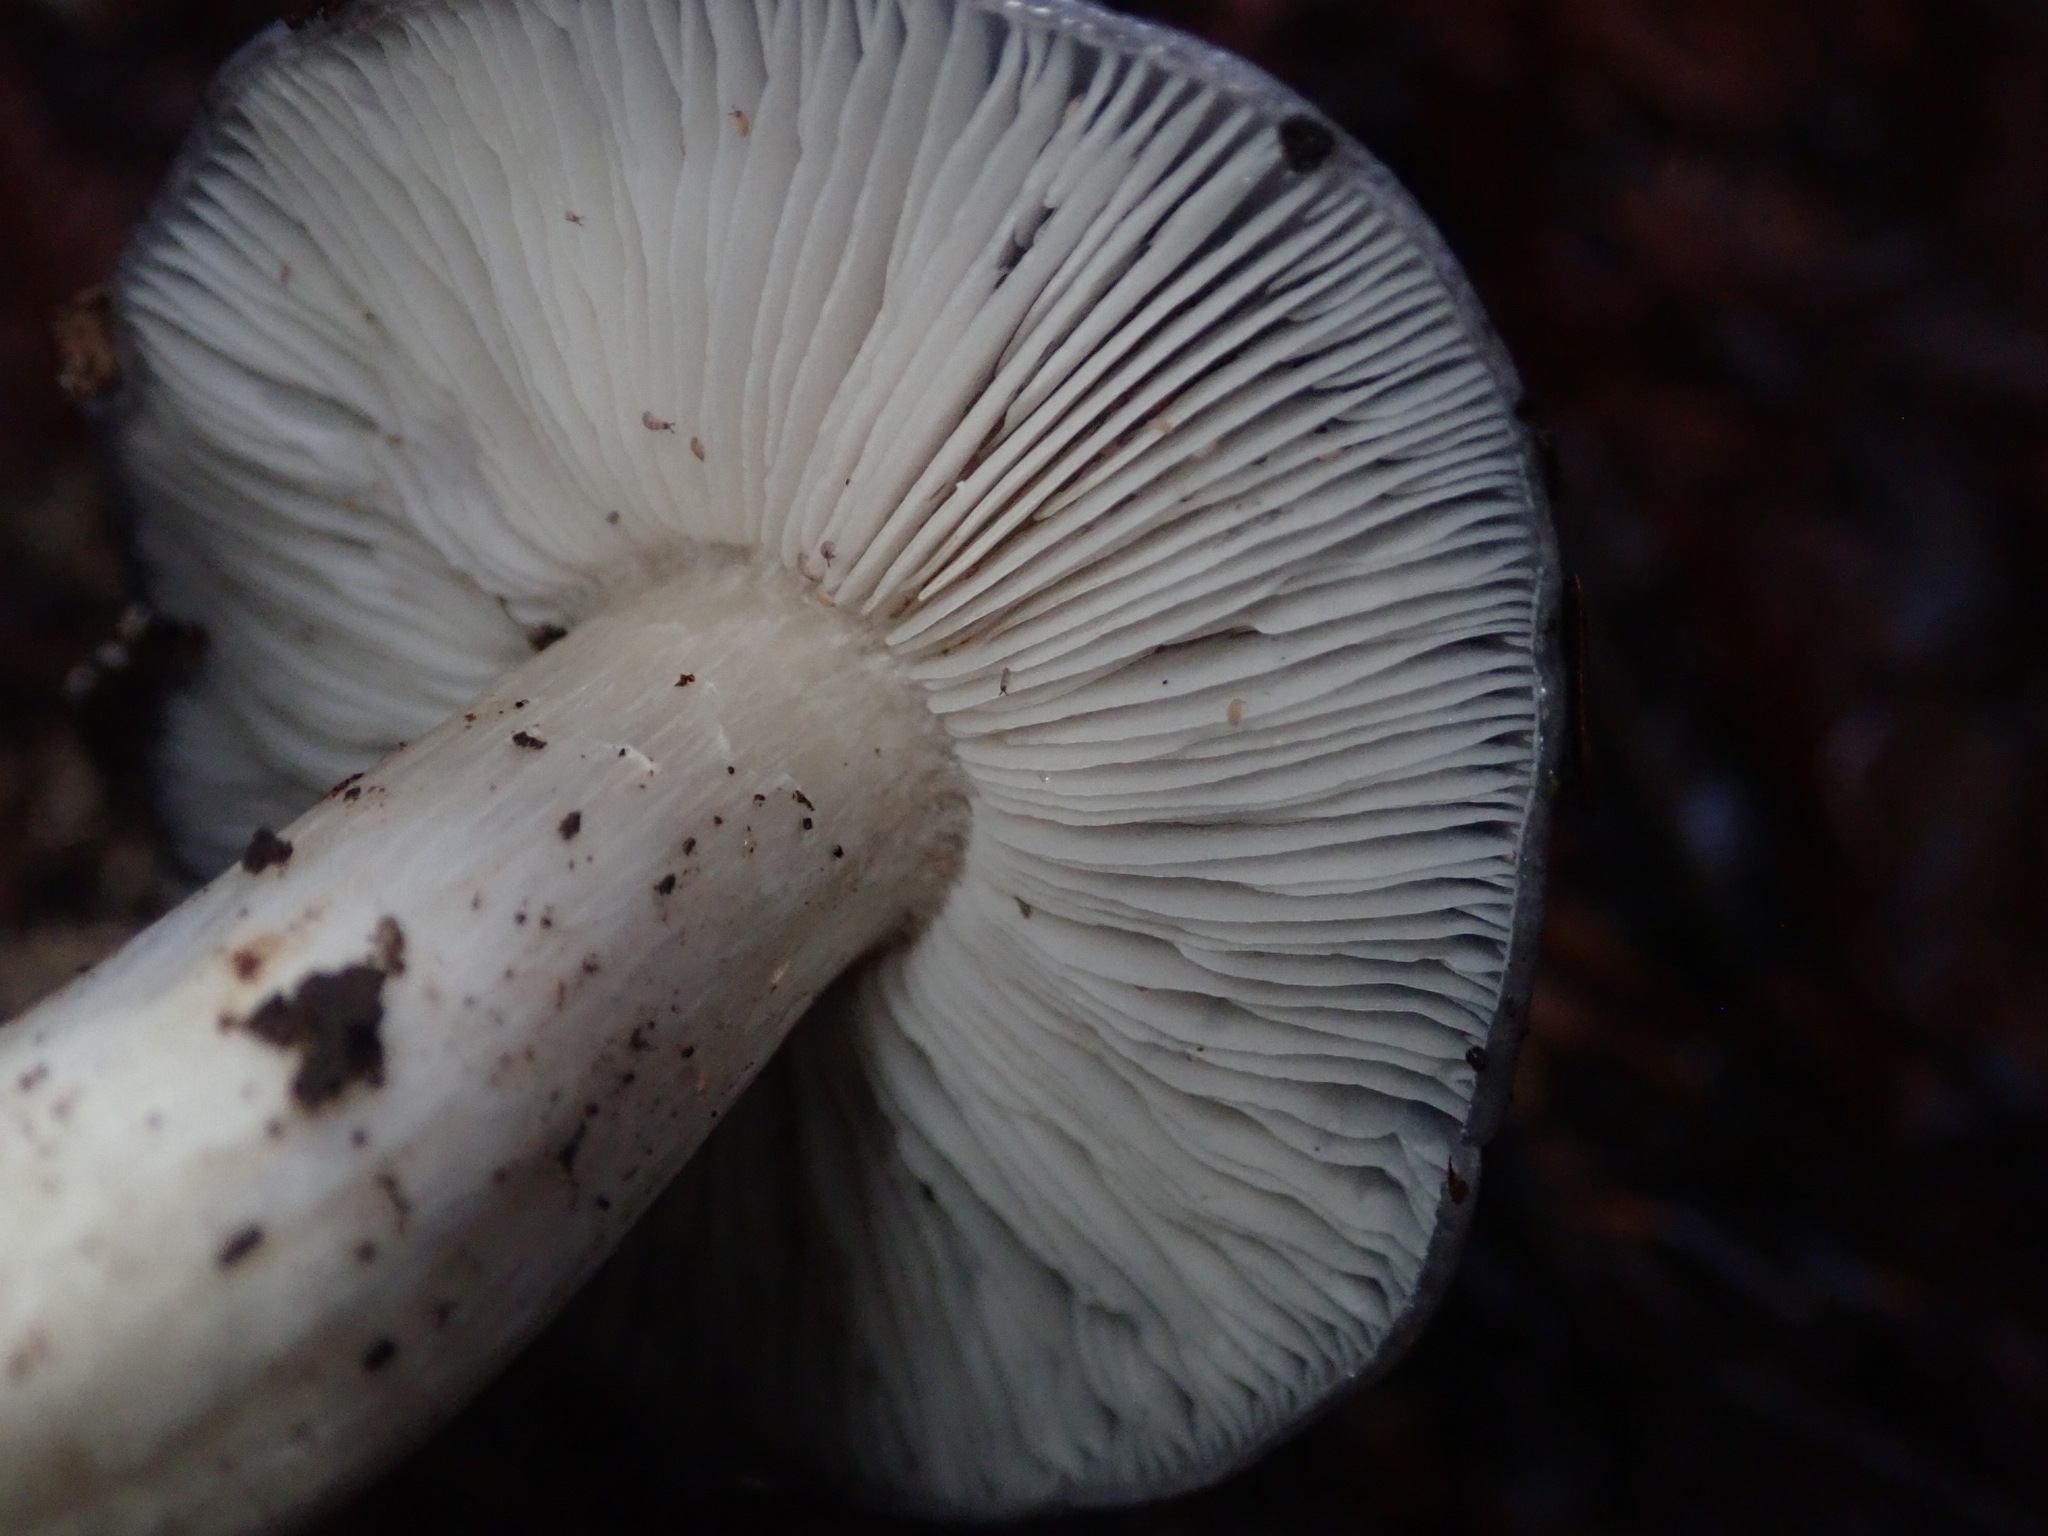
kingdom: Fungi
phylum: Basidiomycota
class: Agaricomycetes
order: Agaricales
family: Entolomataceae
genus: Entoloma
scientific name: Entoloma medianox
